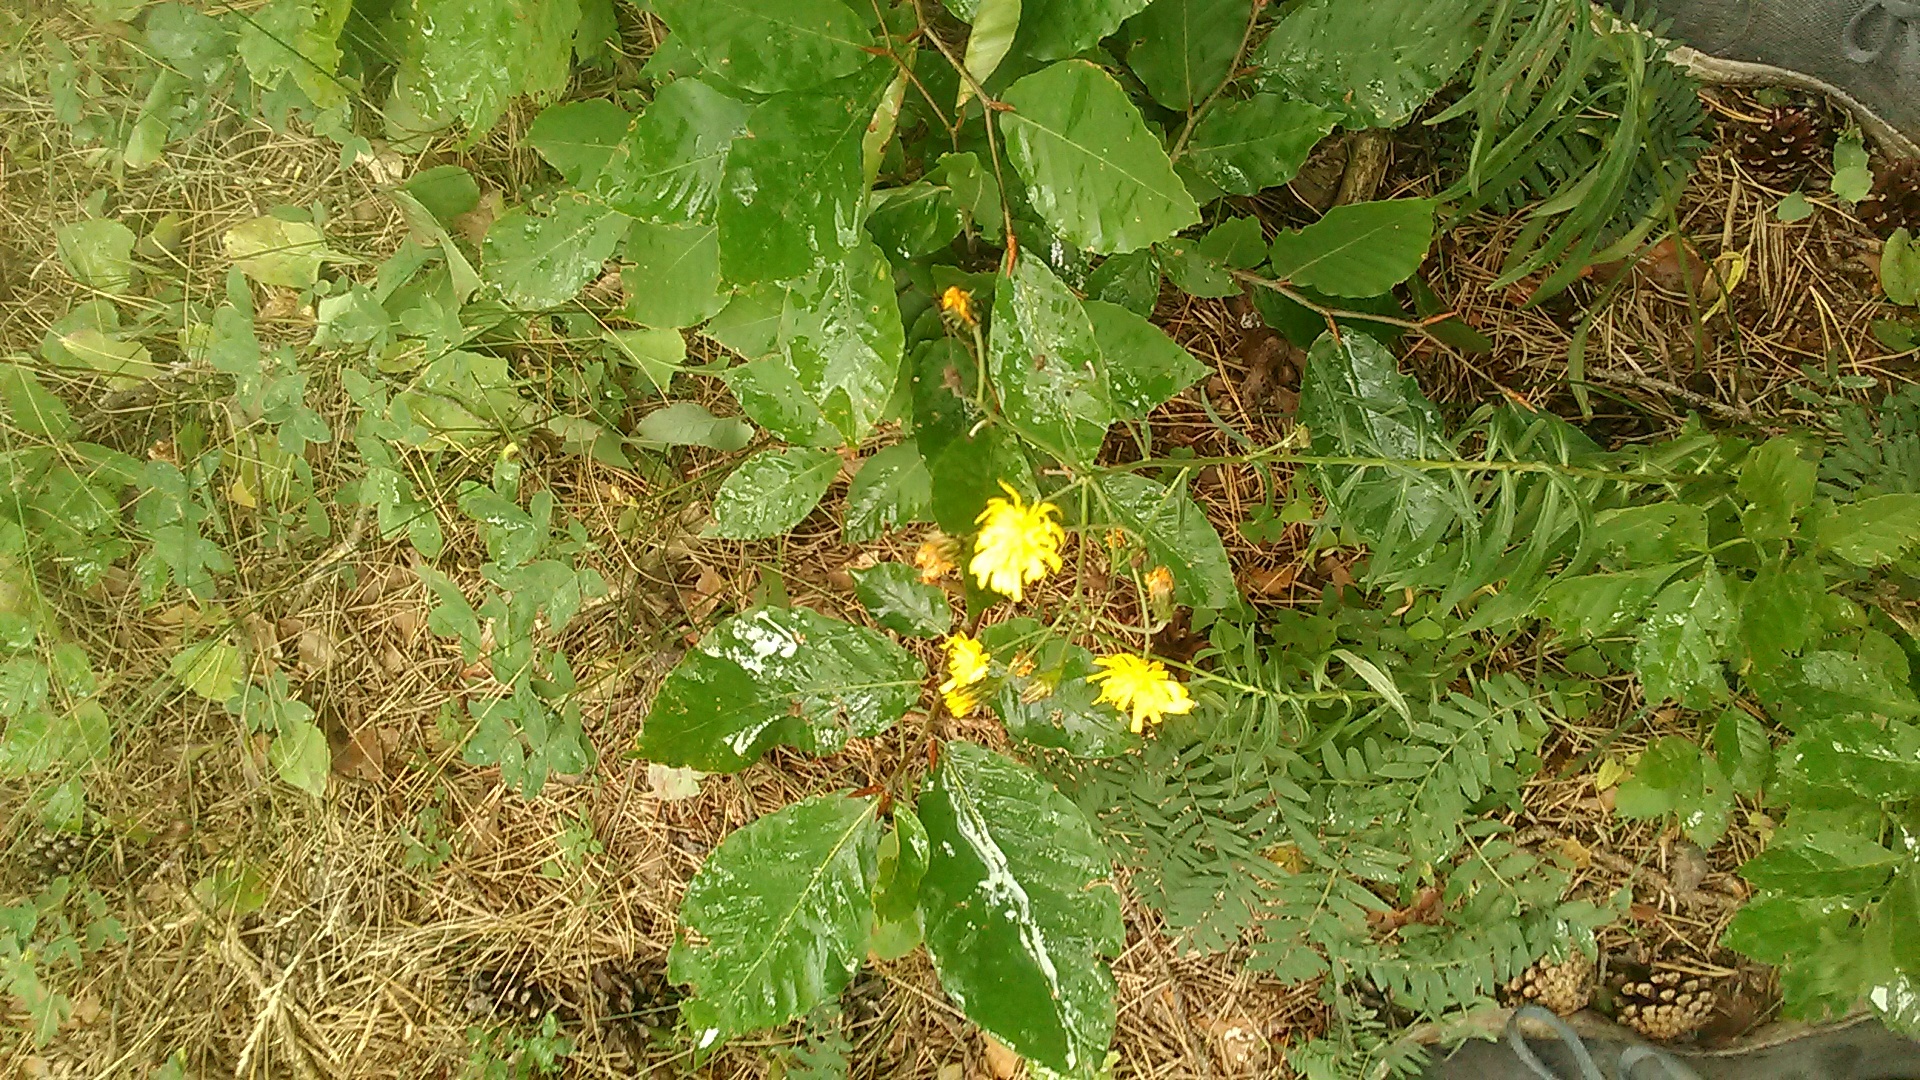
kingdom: Plantae
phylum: Tracheophyta
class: Magnoliopsida
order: Asterales
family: Asteraceae
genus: Hieracium
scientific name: Hieracium umbellatum
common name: Northern hawkweed
